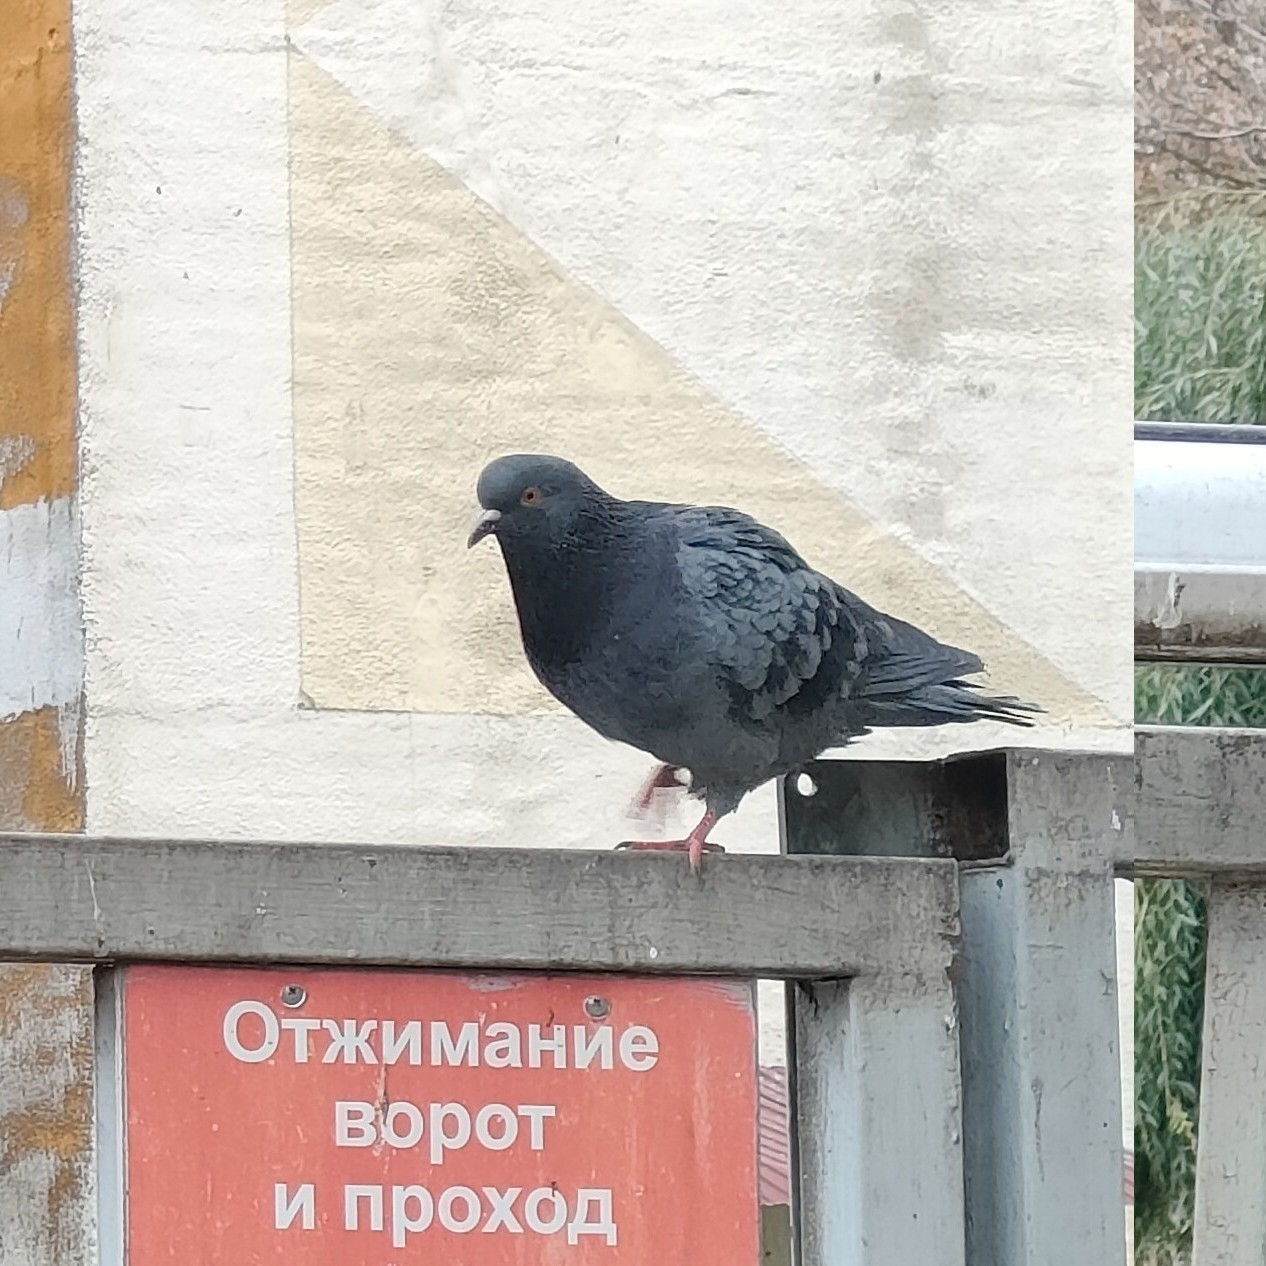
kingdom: Animalia
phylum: Chordata
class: Aves
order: Columbiformes
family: Columbidae
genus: Columba
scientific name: Columba livia
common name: Rock pigeon
